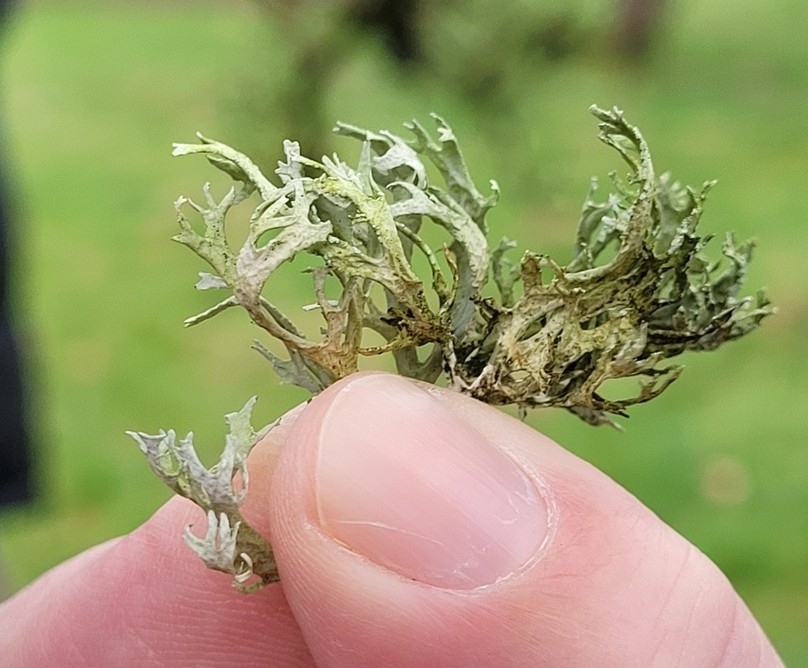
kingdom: Fungi
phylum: Ascomycota
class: Lecanoromycetes
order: Lecanorales
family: Parmeliaceae
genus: Evernia
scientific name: Evernia prunastri
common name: Oak moss
